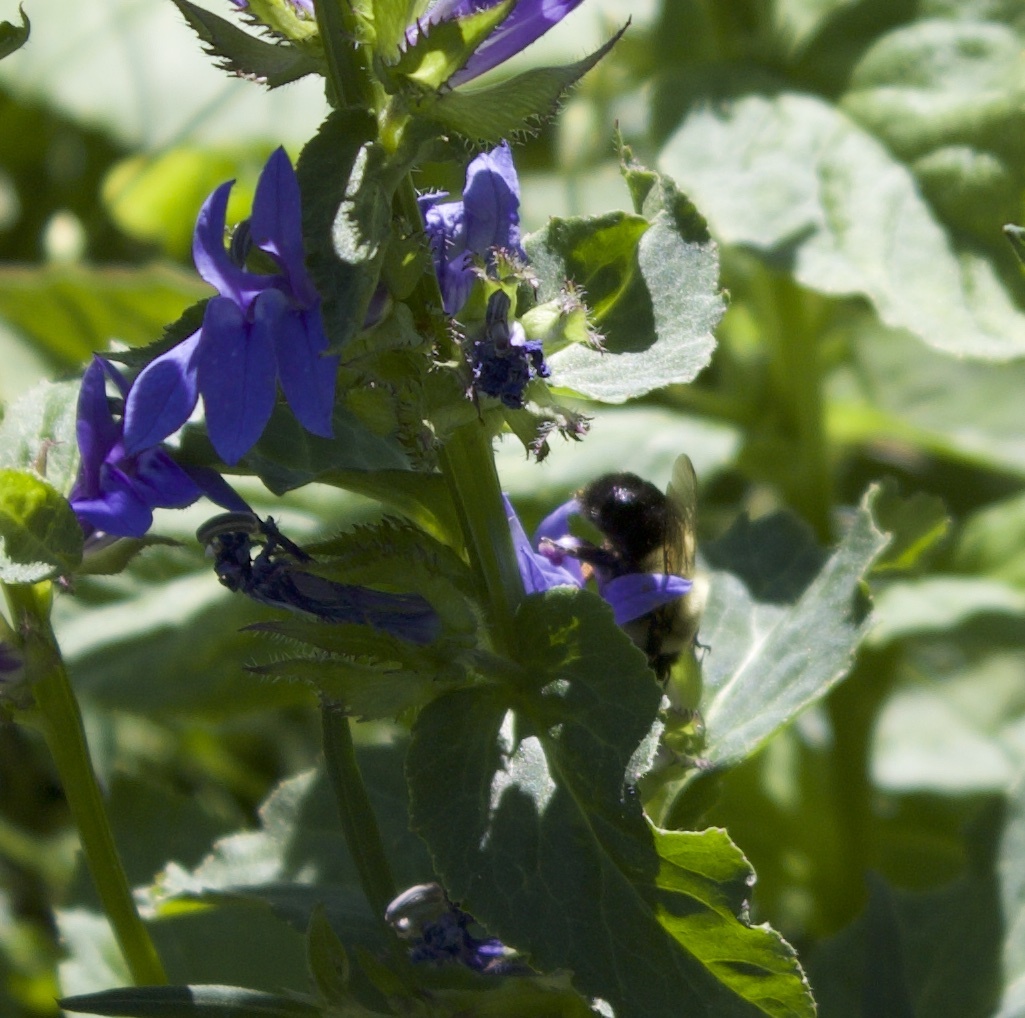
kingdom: Animalia
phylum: Arthropoda
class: Insecta
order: Hymenoptera
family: Apidae
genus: Bombus
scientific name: Bombus impatiens
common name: Common eastern bumble bee
